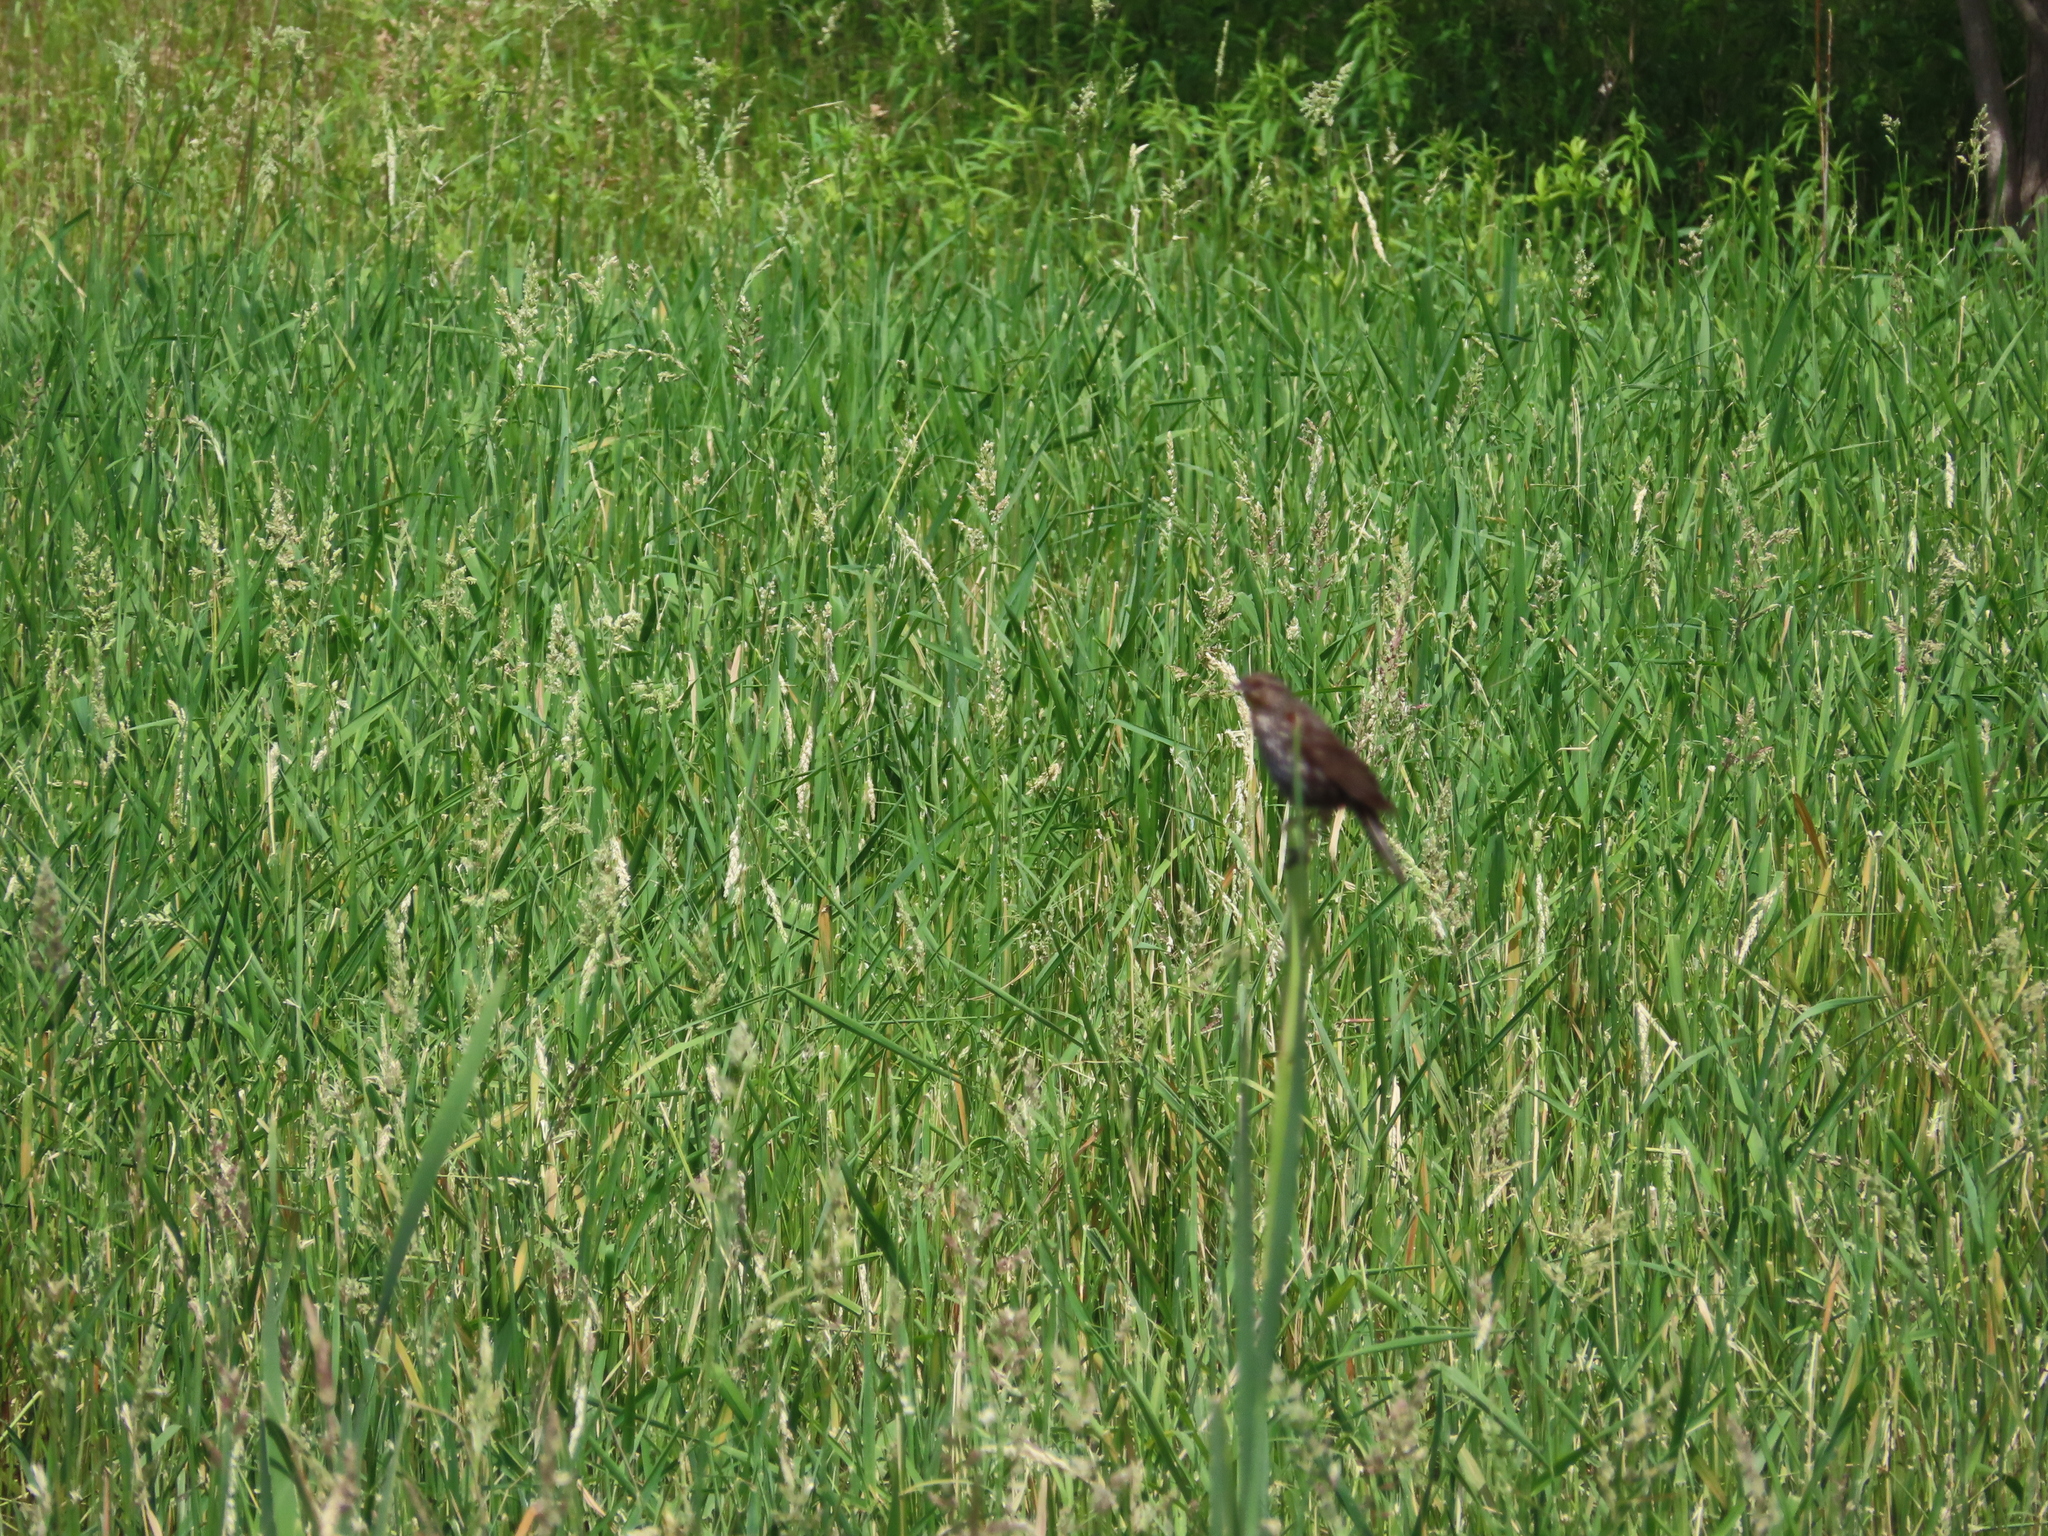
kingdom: Animalia
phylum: Chordata
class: Aves
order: Passeriformes
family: Icteridae
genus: Agelaius
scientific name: Agelaius phoeniceus
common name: Red-winged blackbird
